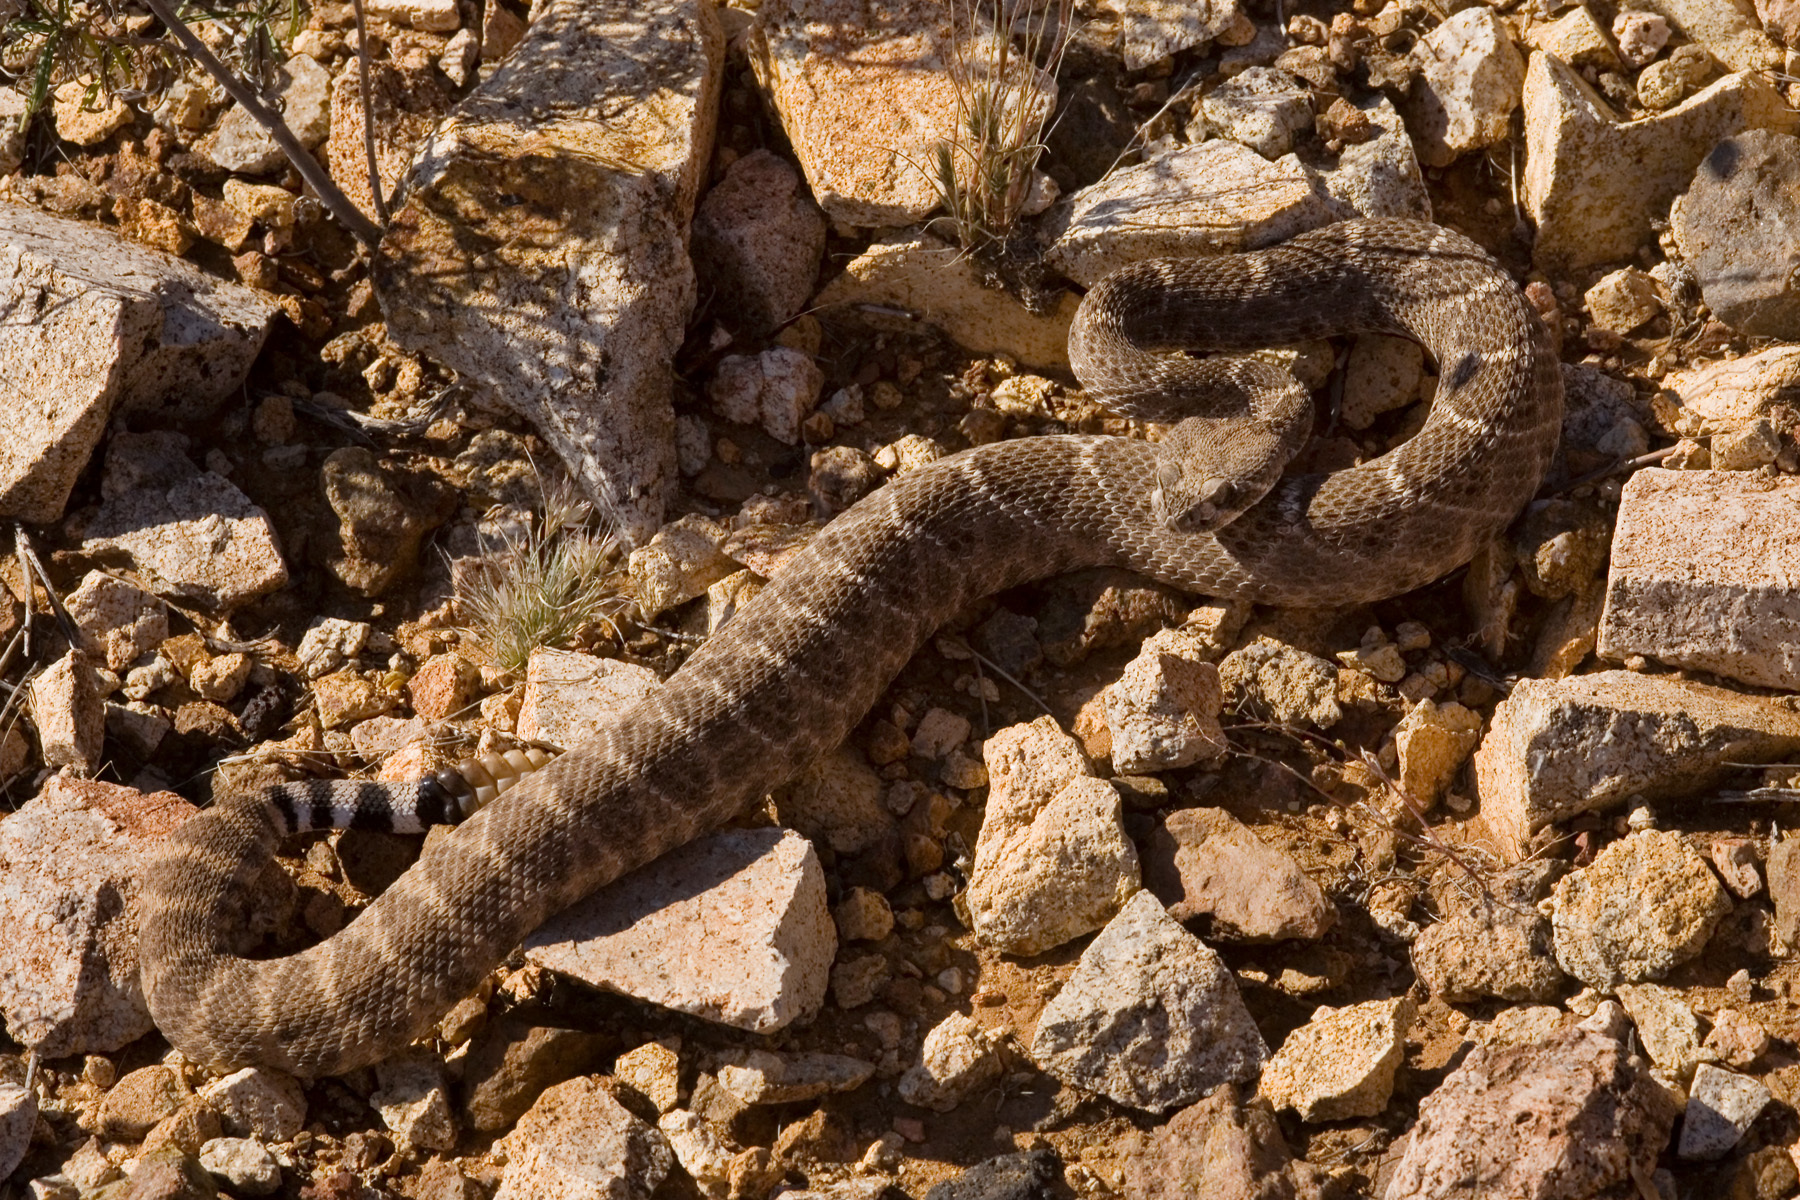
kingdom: Animalia
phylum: Chordata
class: Squamata
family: Viperidae
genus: Crotalus
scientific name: Crotalus atrox
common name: Western diamond-backed rattlesnake
